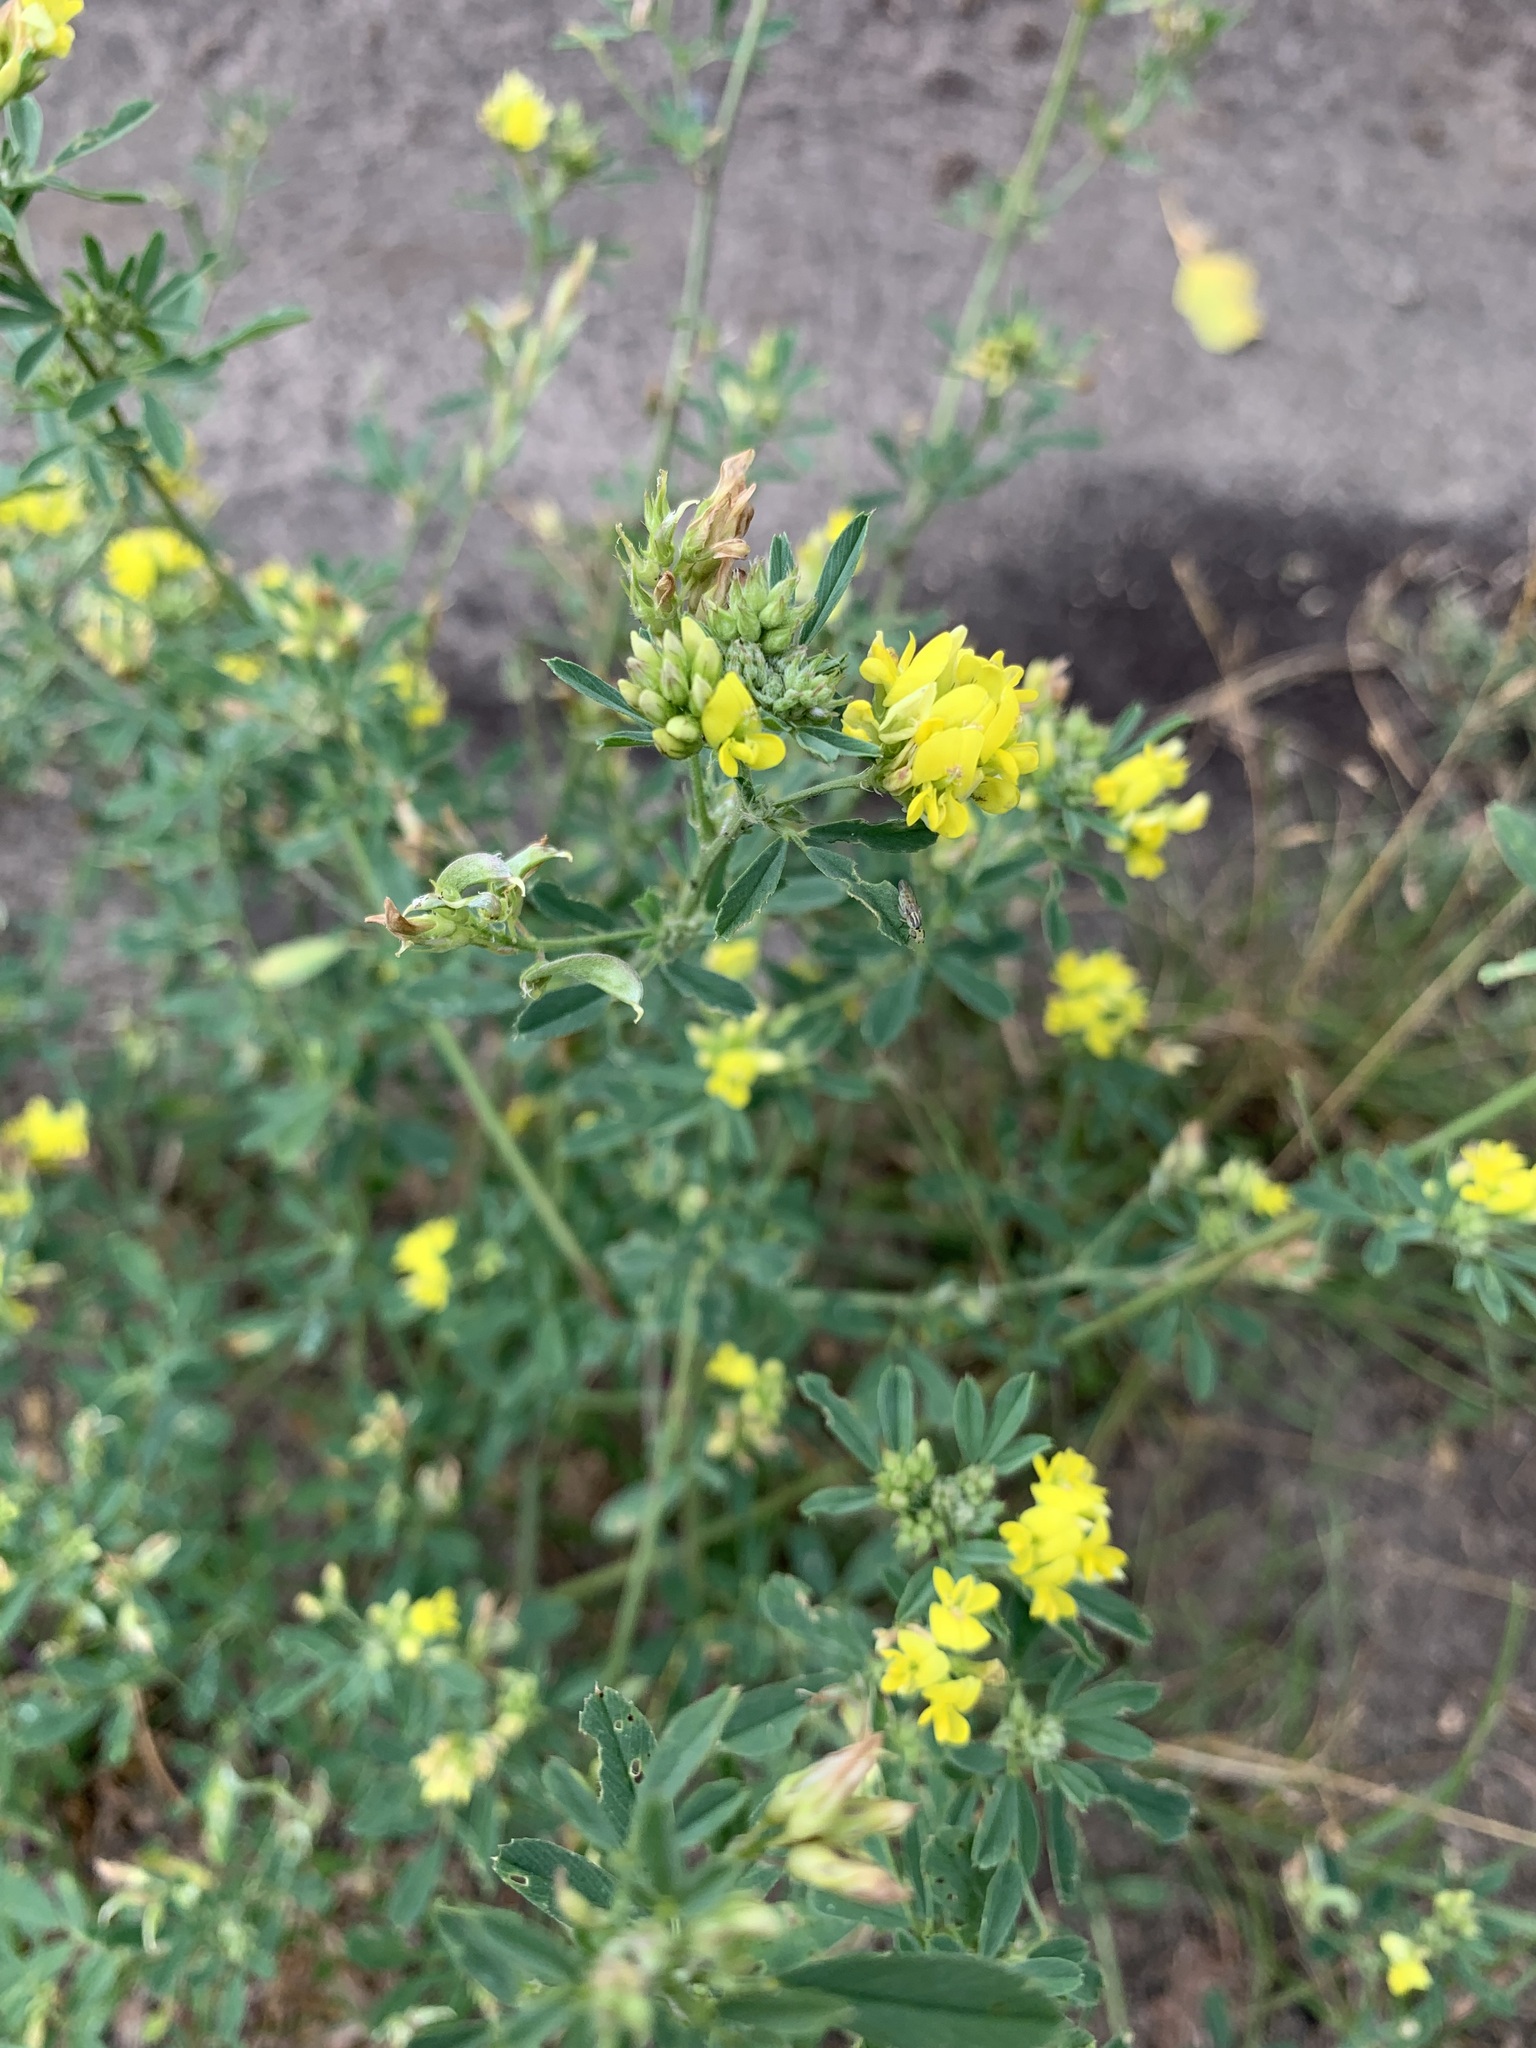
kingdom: Plantae
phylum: Tracheophyta
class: Magnoliopsida
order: Fabales
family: Fabaceae
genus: Medicago
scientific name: Medicago falcata
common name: Sickle medick
